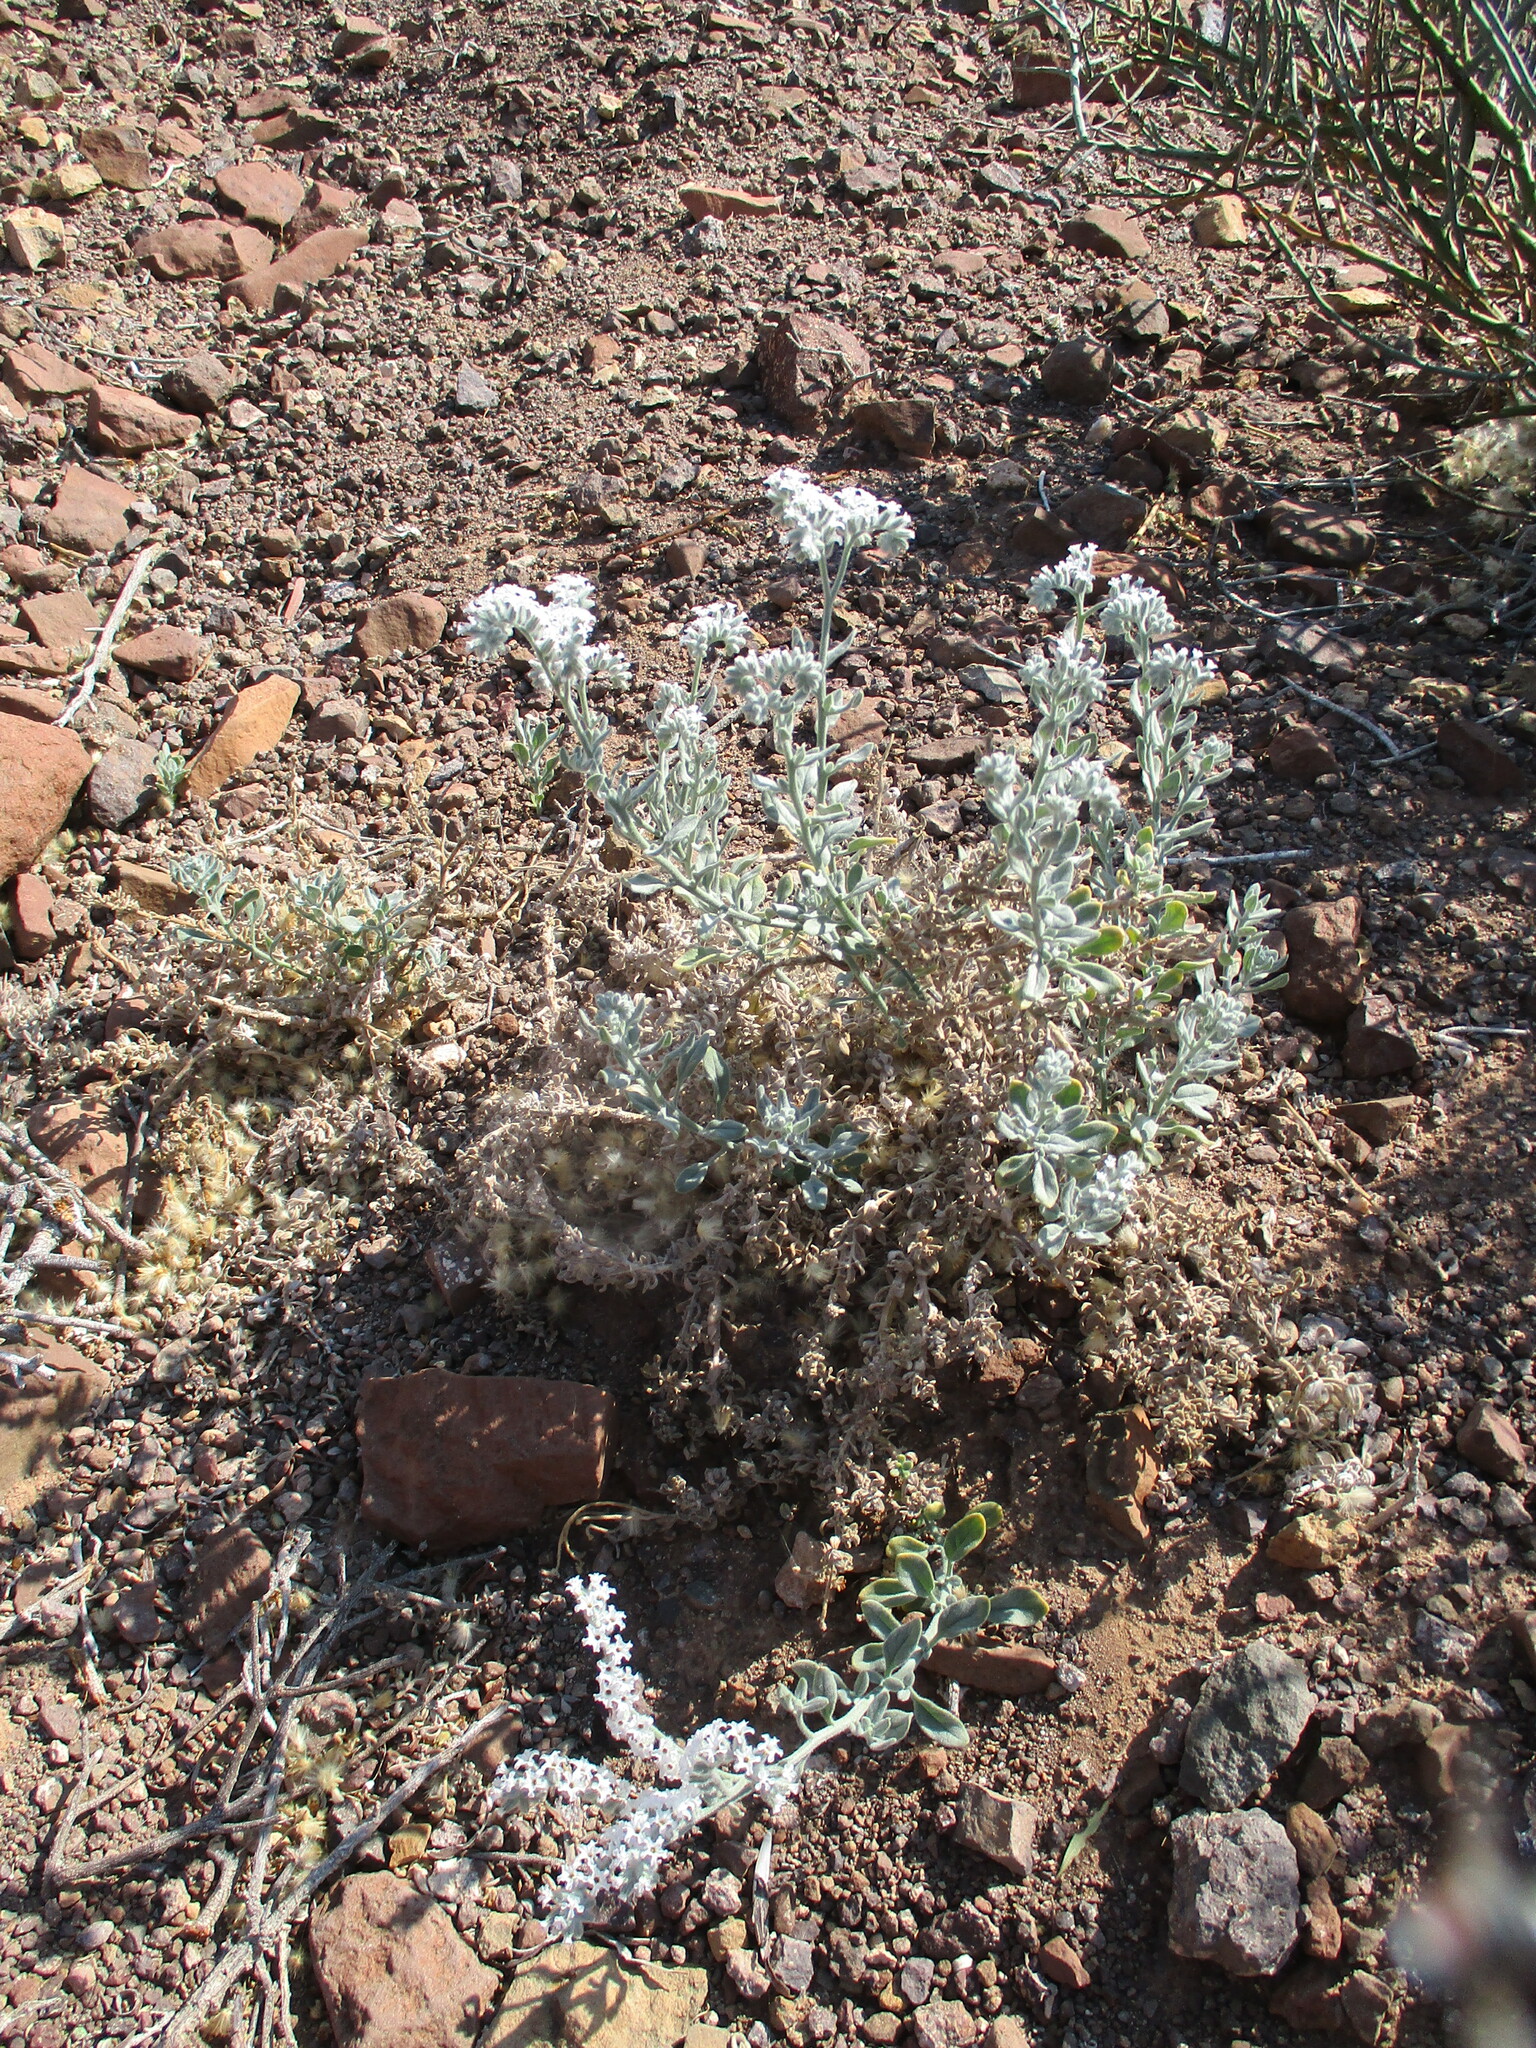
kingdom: Plantae
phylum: Tracheophyta
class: Magnoliopsida
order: Boraginales
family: Heliotropiaceae
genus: Heliotropium
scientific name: Heliotropium tubulosum
